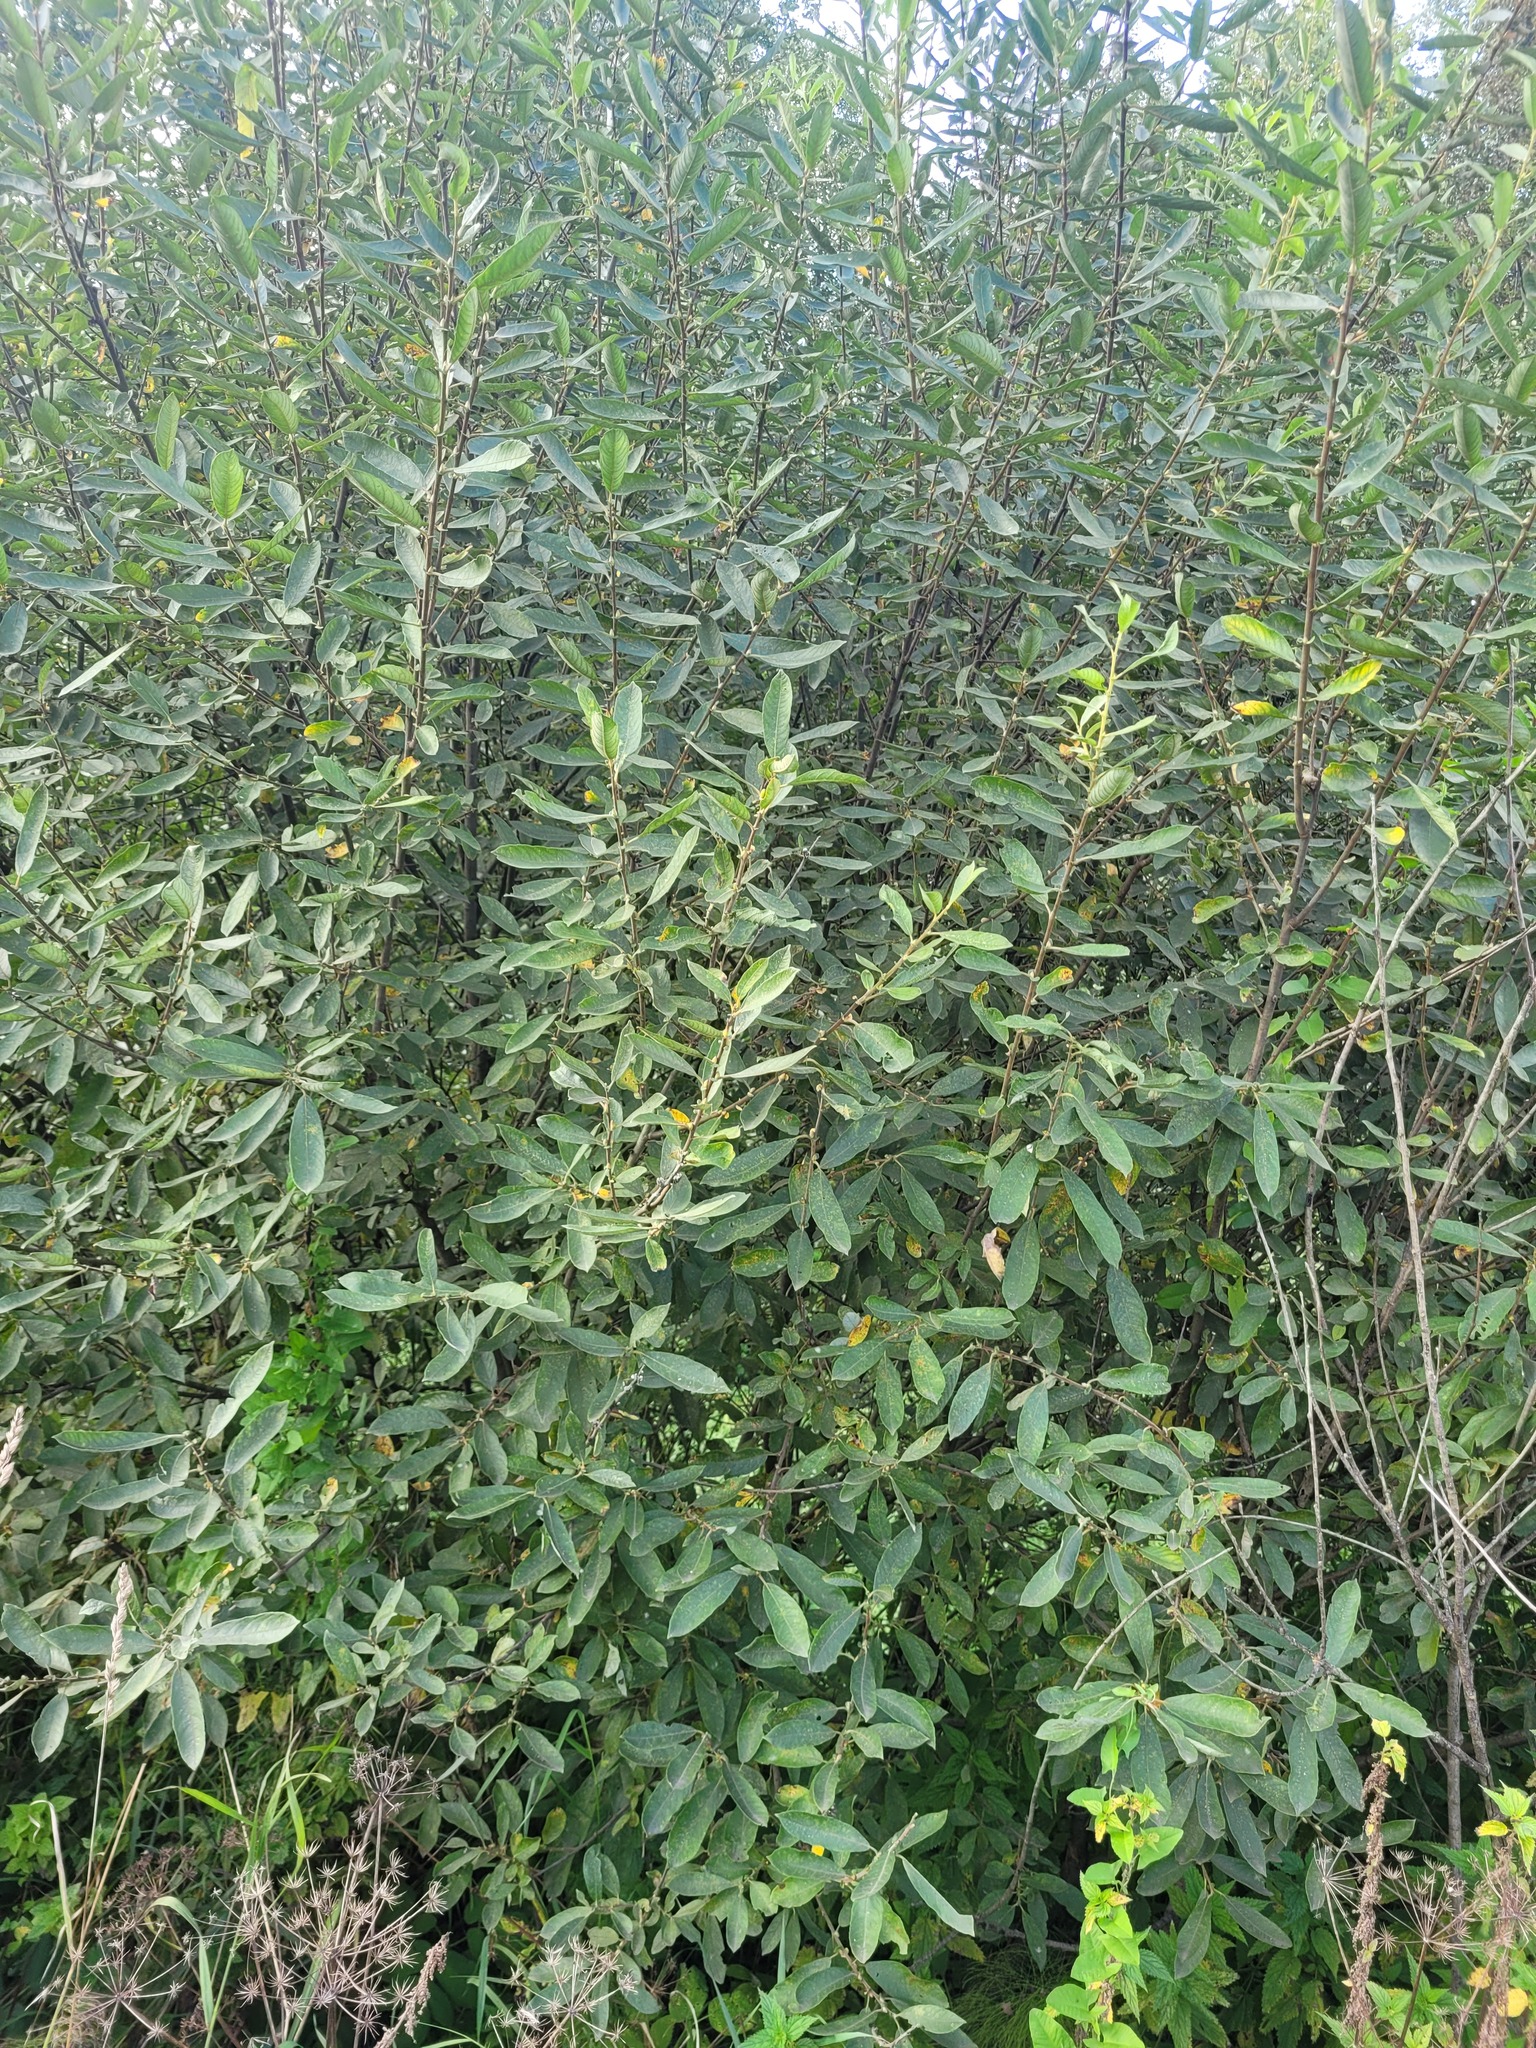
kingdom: Plantae
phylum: Tracheophyta
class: Magnoliopsida
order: Malpighiales
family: Salicaceae
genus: Salix
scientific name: Salix cinerea
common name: Common sallow
